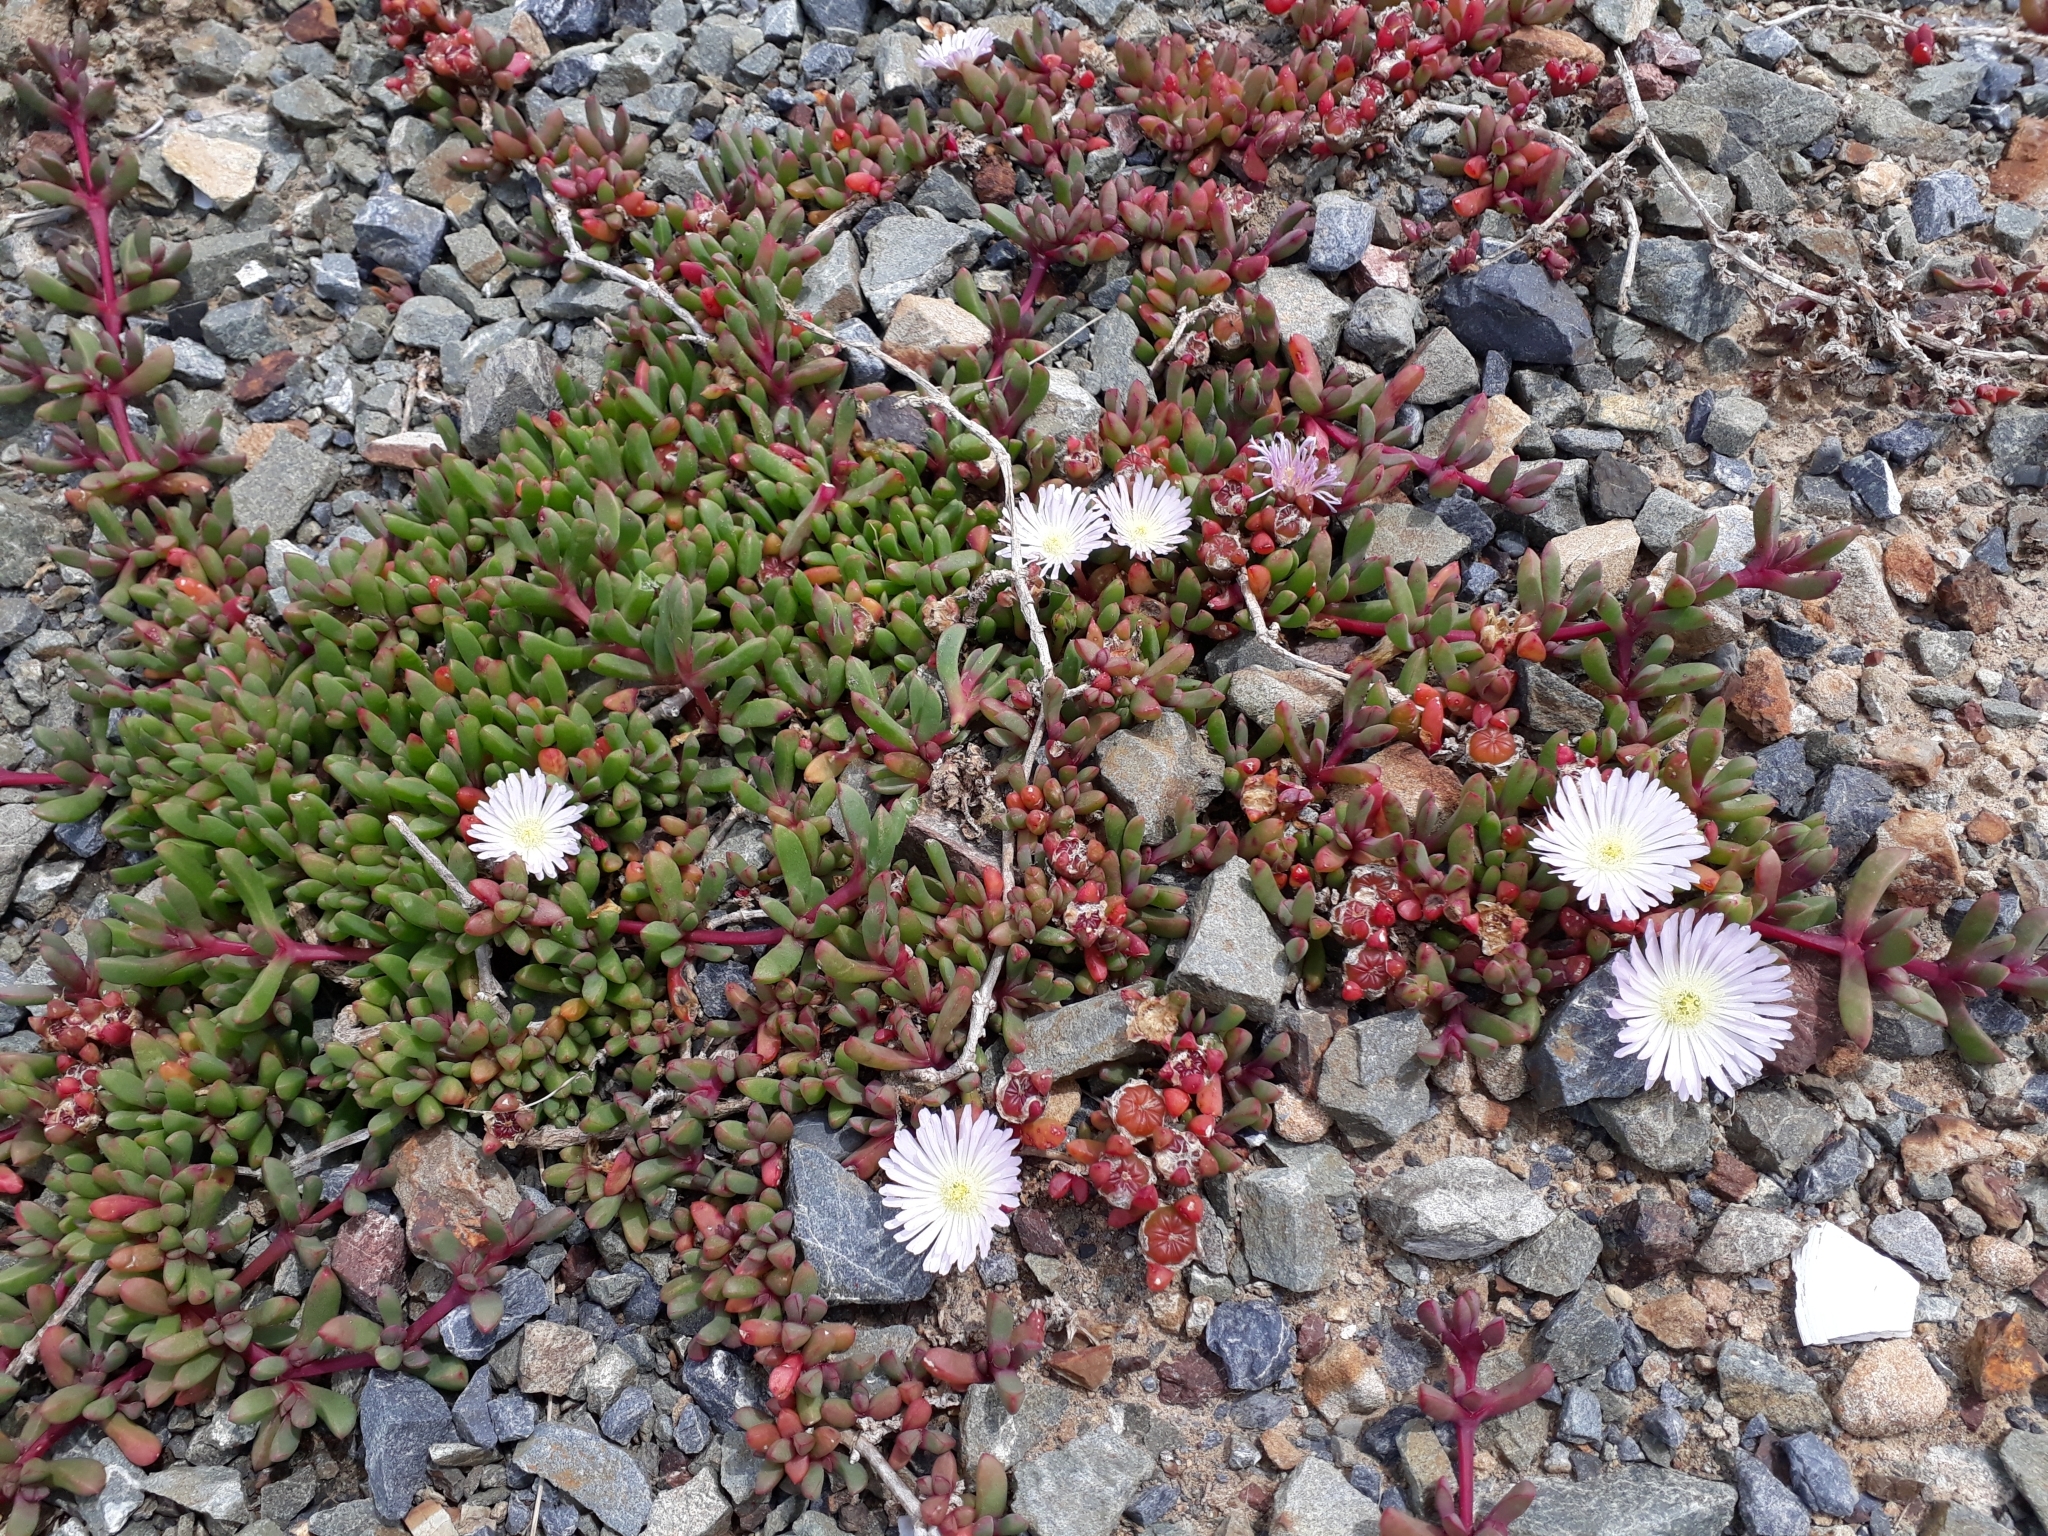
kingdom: Plantae
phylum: Tracheophyta
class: Magnoliopsida
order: Caryophyllales
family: Aizoaceae
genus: Disphyma
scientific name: Disphyma australe
